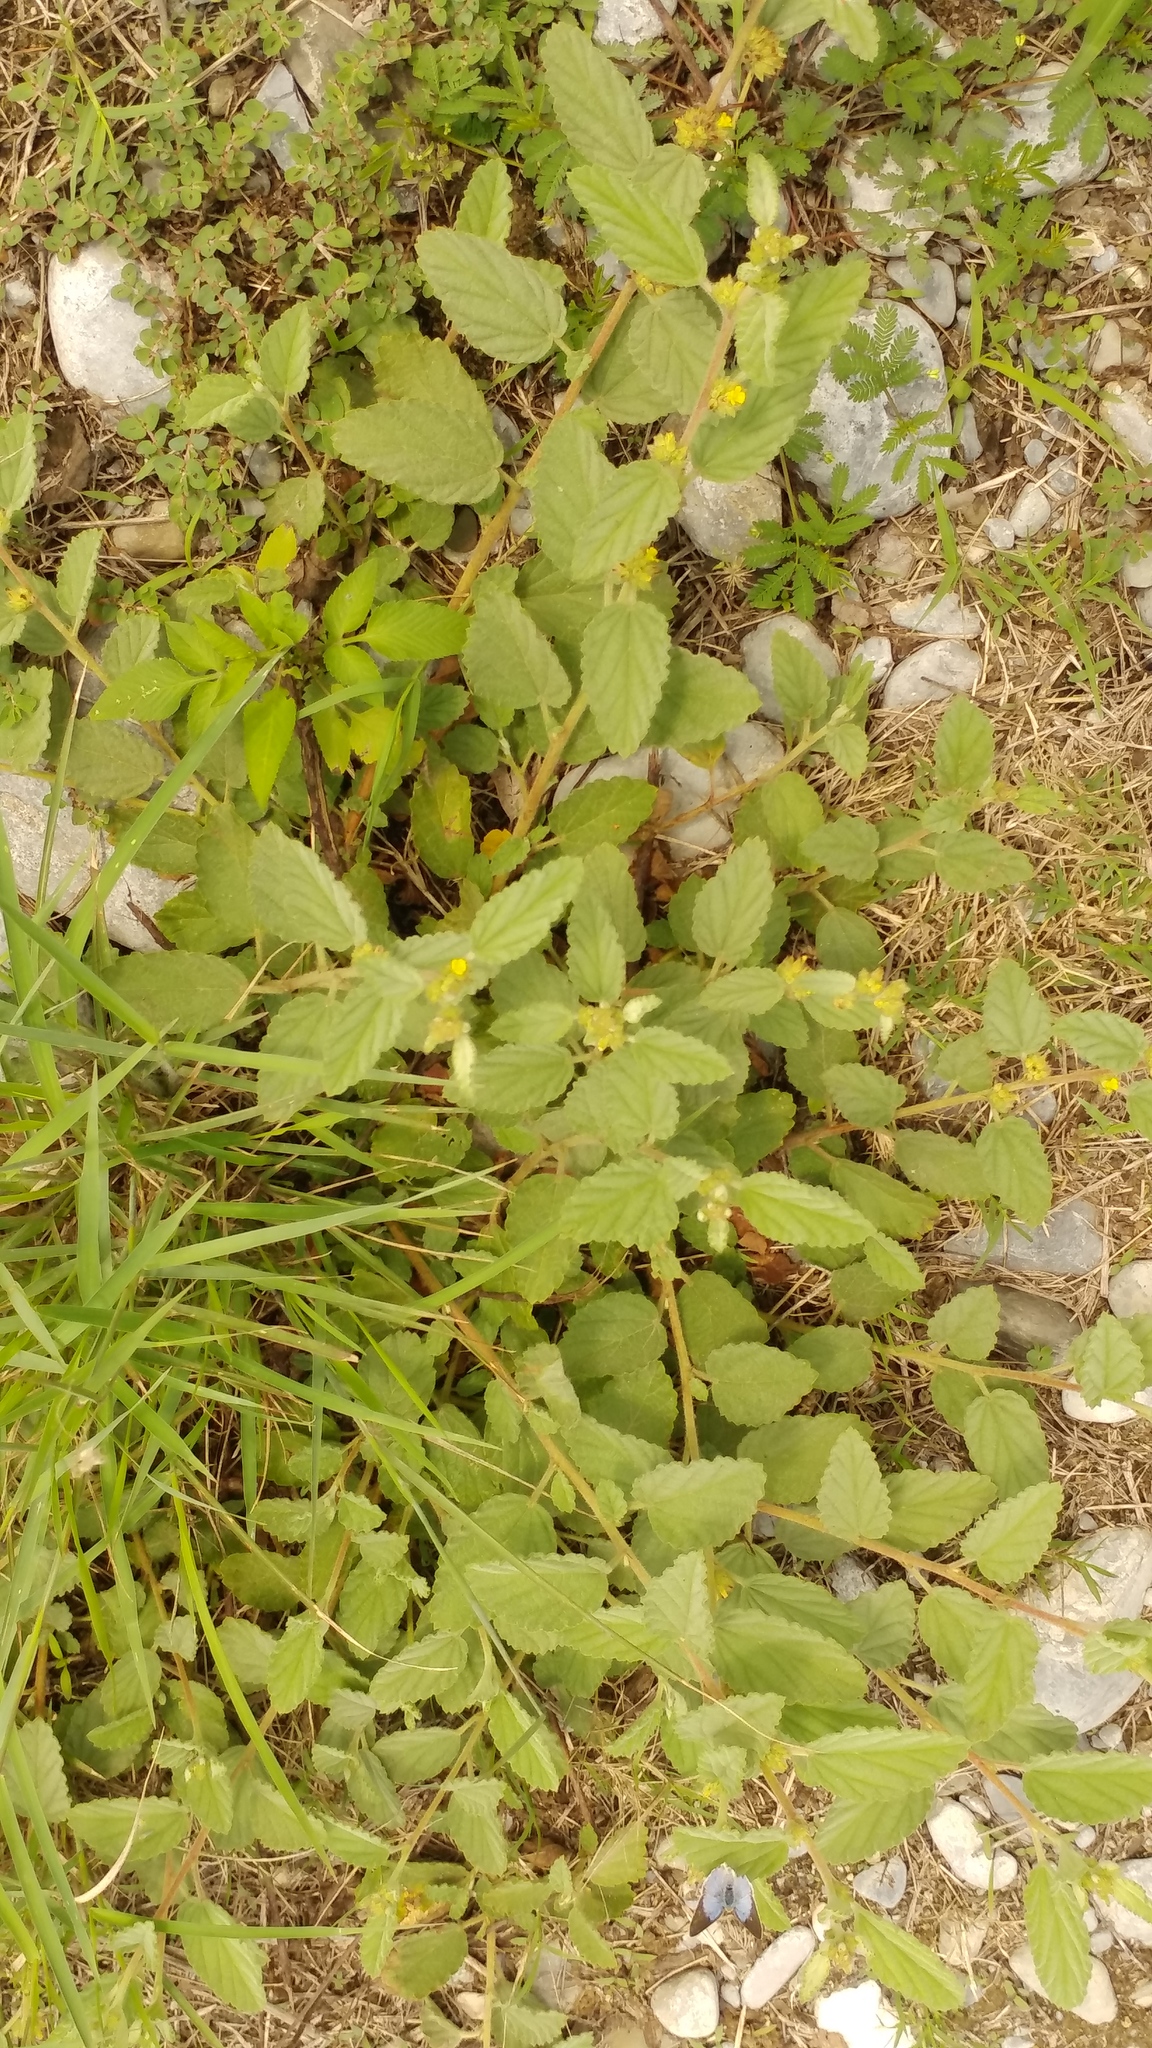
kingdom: Plantae
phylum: Tracheophyta
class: Magnoliopsida
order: Malvales
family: Malvaceae
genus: Waltheria
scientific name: Waltheria indica
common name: Leather-coat
